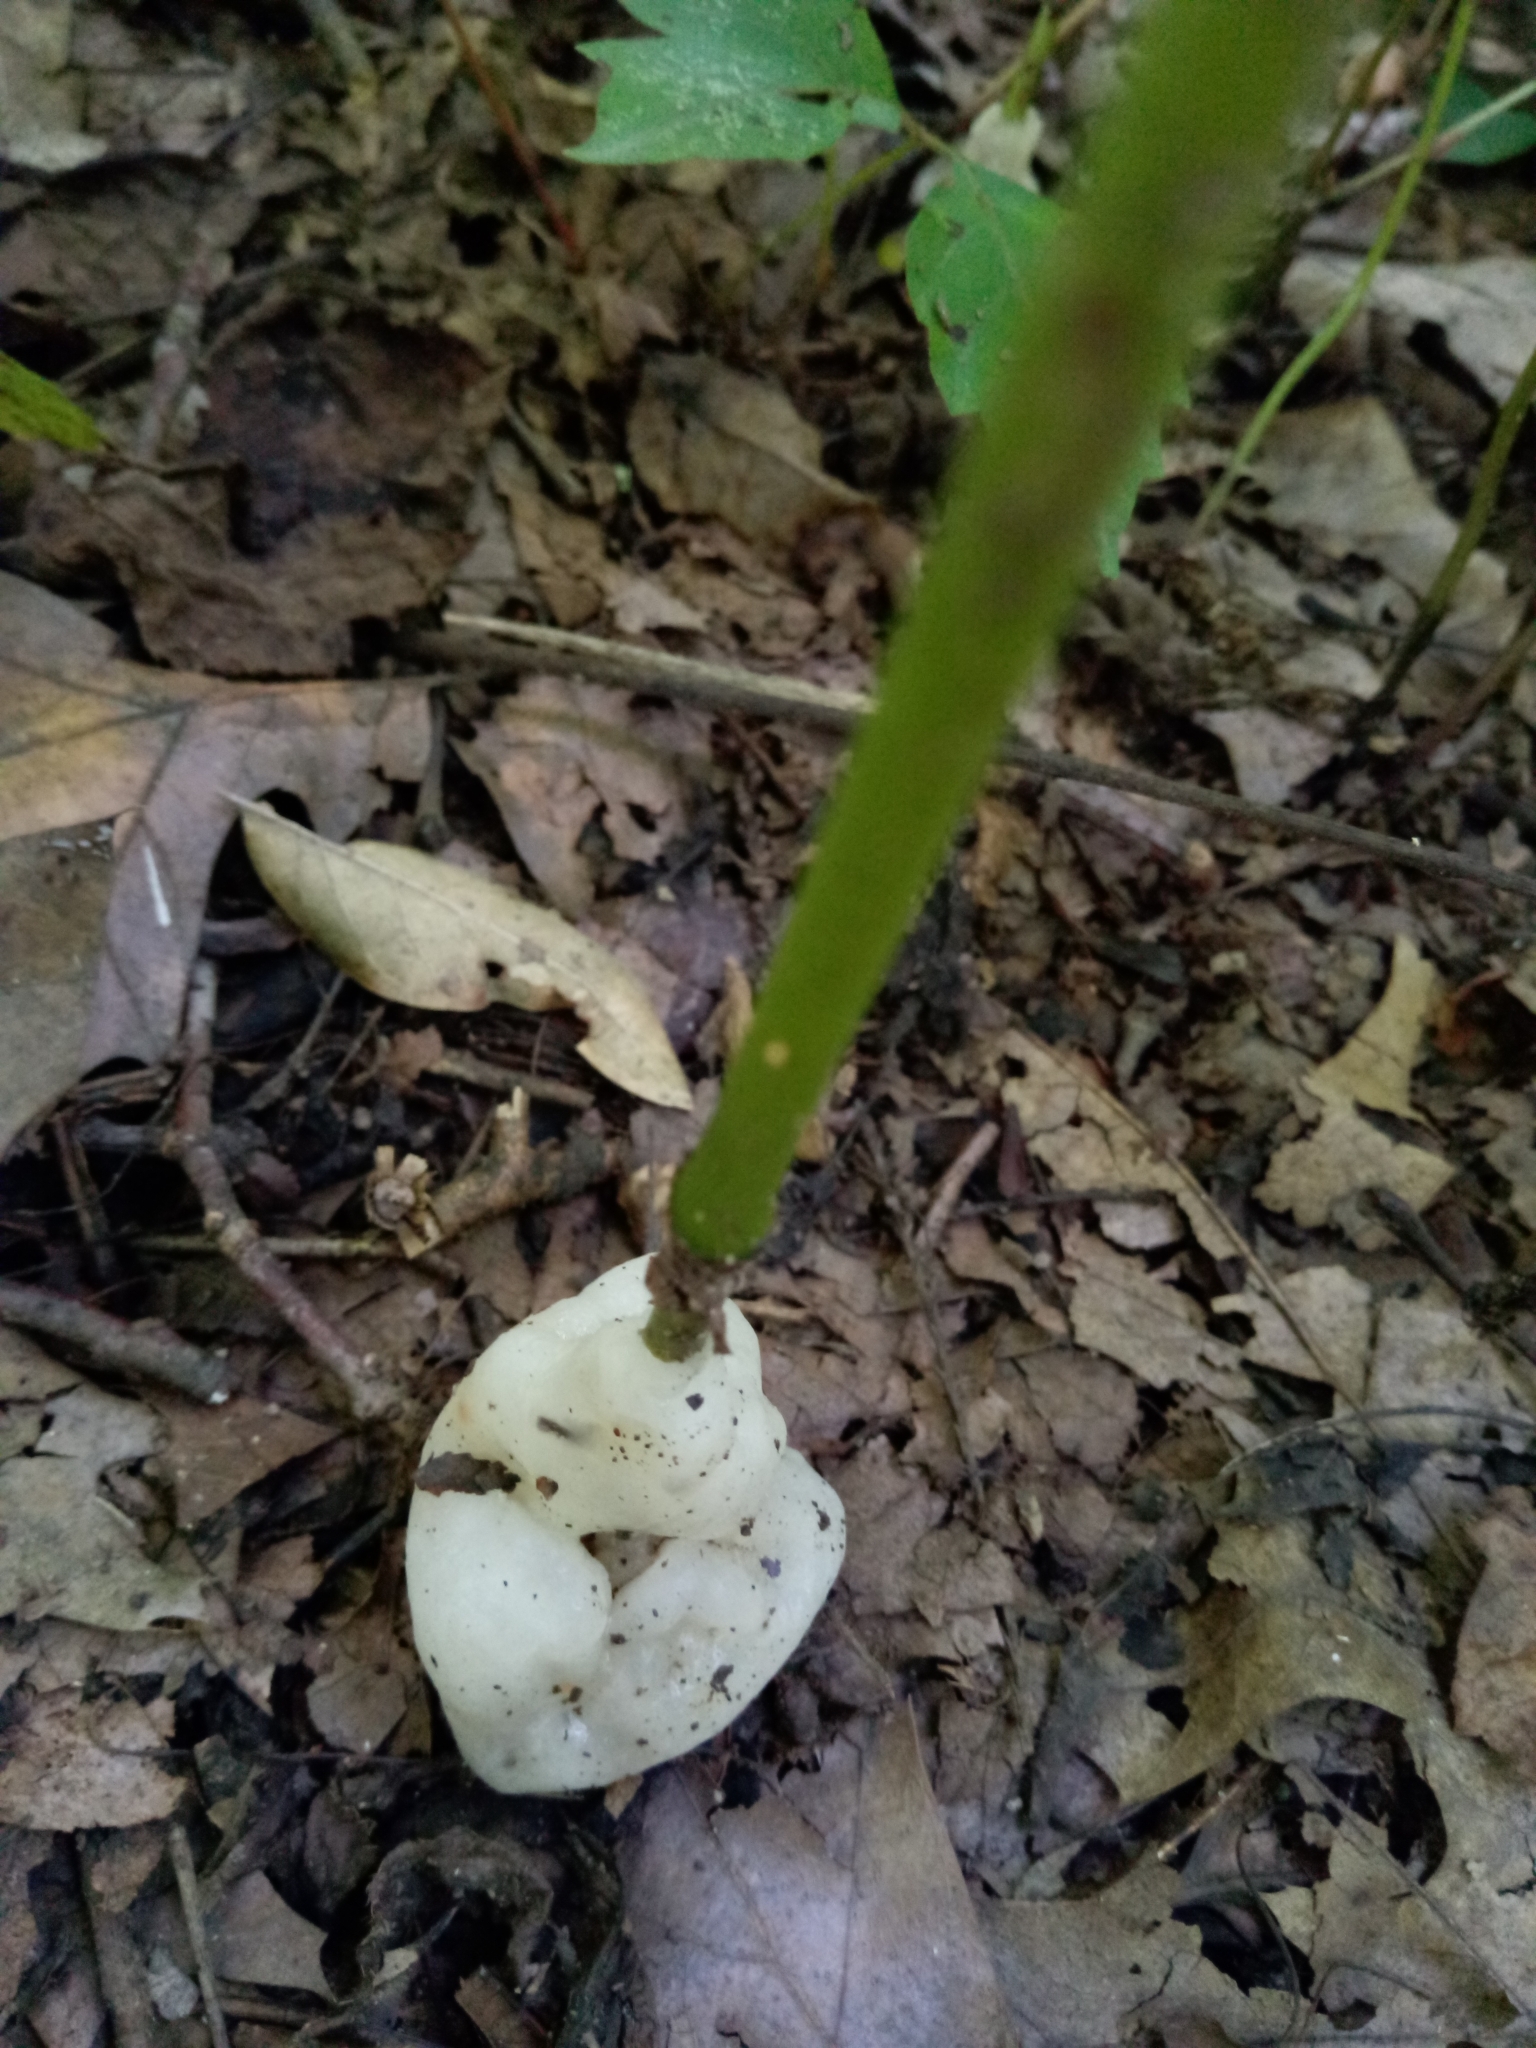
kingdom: Fungi
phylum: Basidiomycota
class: Agaricomycetes
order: Sebacinales
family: Sebacinaceae
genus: Helvellosebacina
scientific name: Helvellosebacina concrescens
